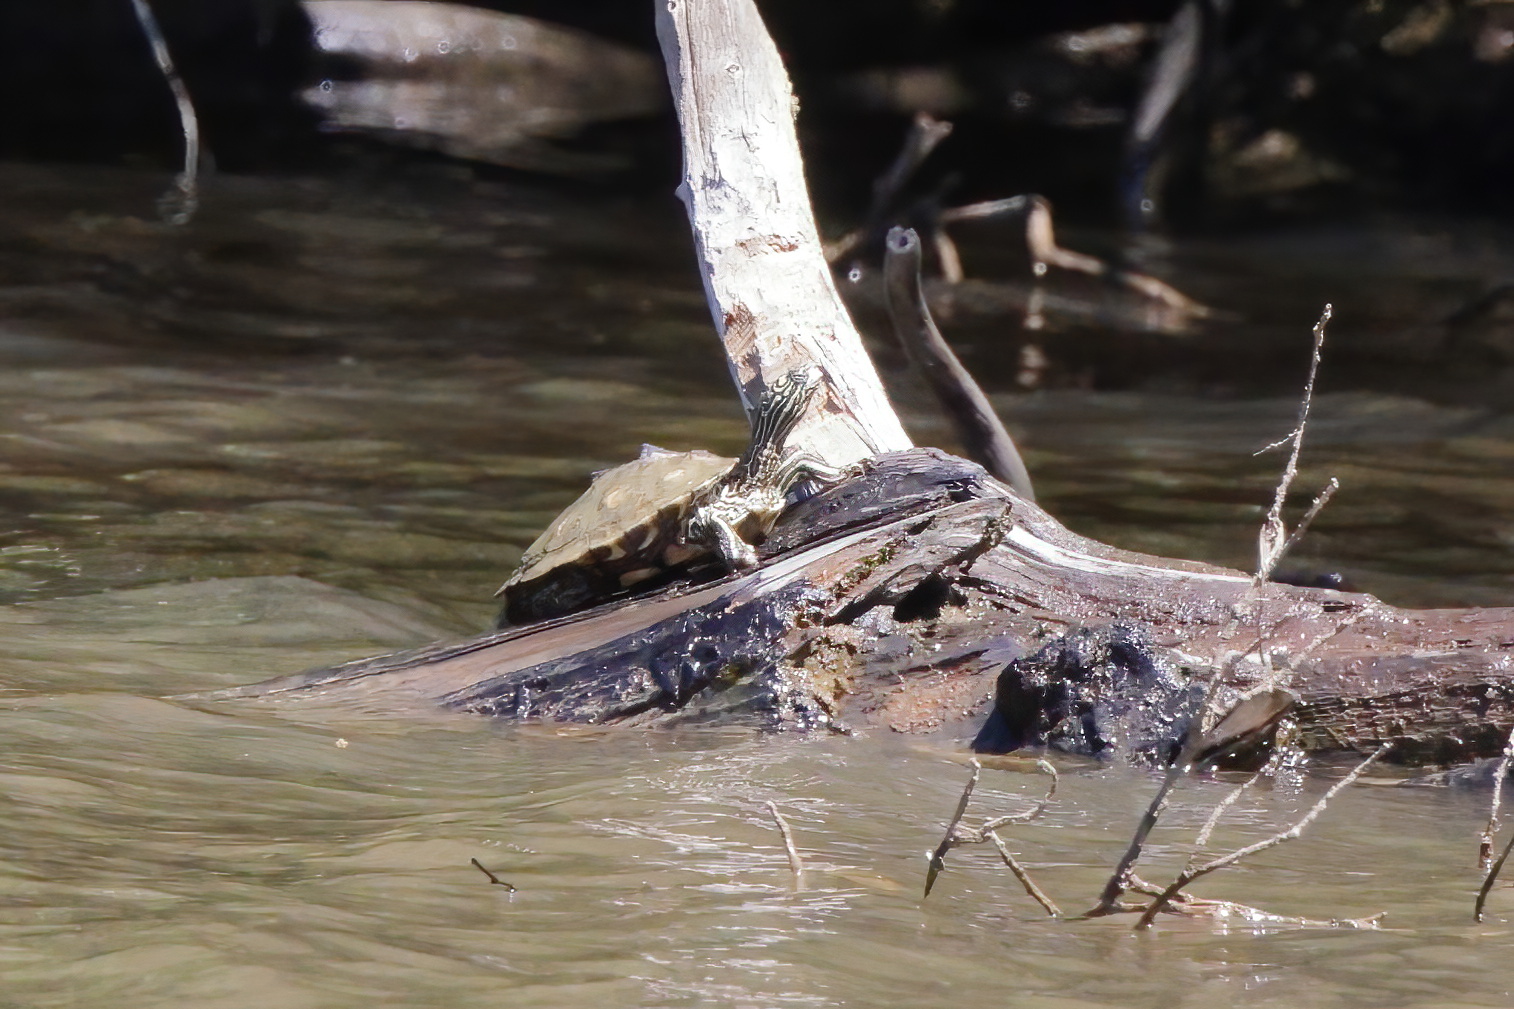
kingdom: Animalia
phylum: Chordata
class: Testudines
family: Emydidae
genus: Graptemys
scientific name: Graptemys flavimaculata
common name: Yellow-blotched map turtle
